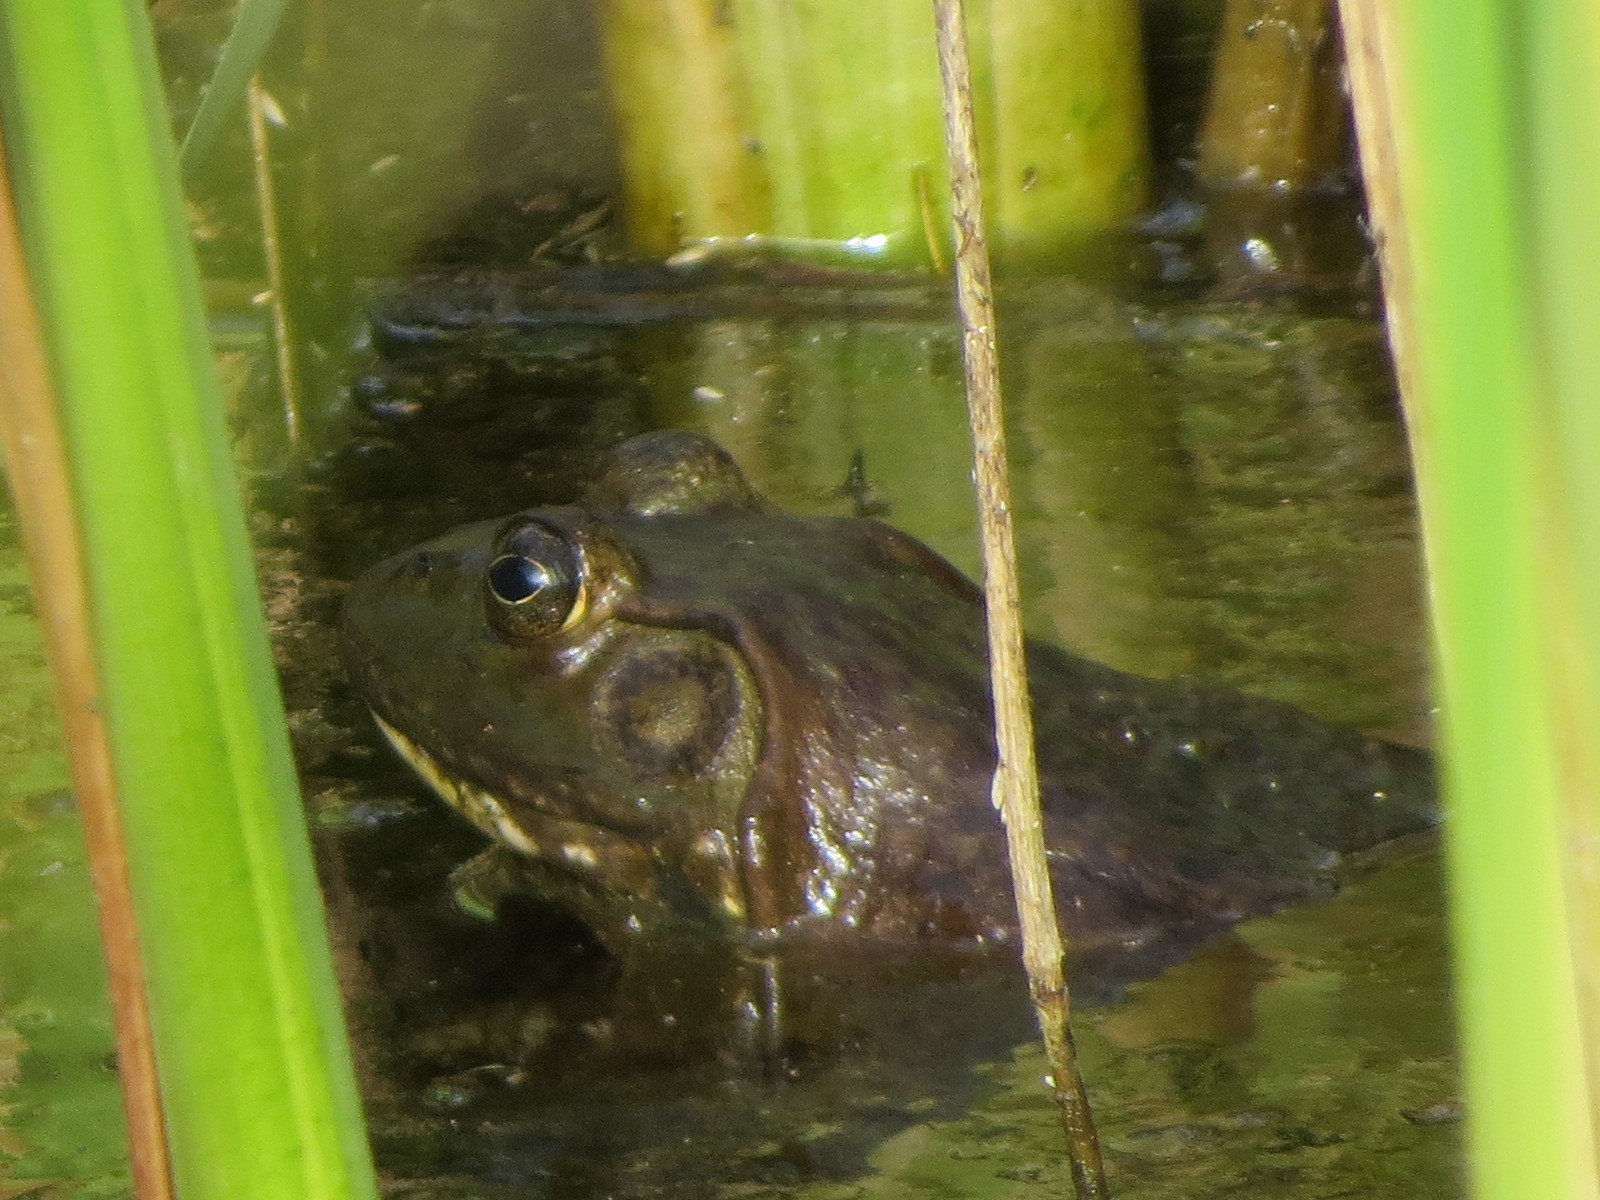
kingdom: Animalia
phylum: Chordata
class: Amphibia
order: Anura
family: Ranidae
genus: Lithobates
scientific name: Lithobates catesbeianus
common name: American bullfrog
